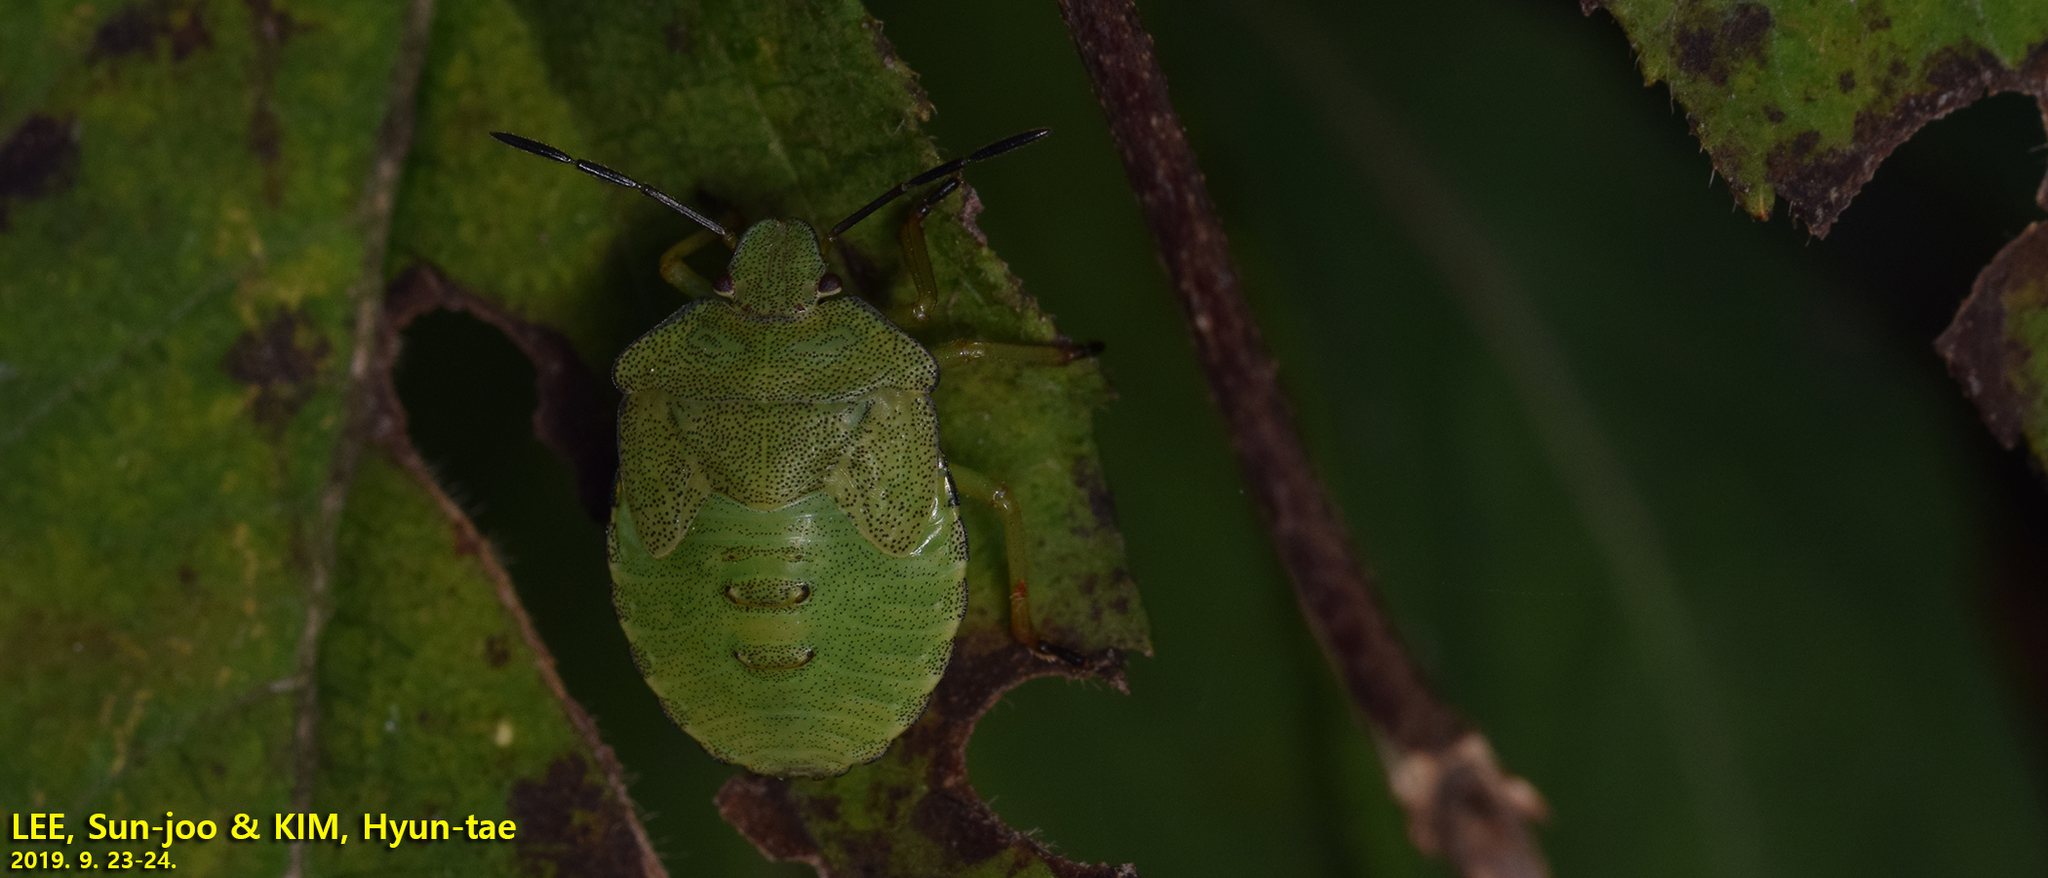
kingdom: Animalia
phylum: Arthropoda
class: Insecta
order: Hemiptera
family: Pentatomidae
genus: Palomena
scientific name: Palomena
